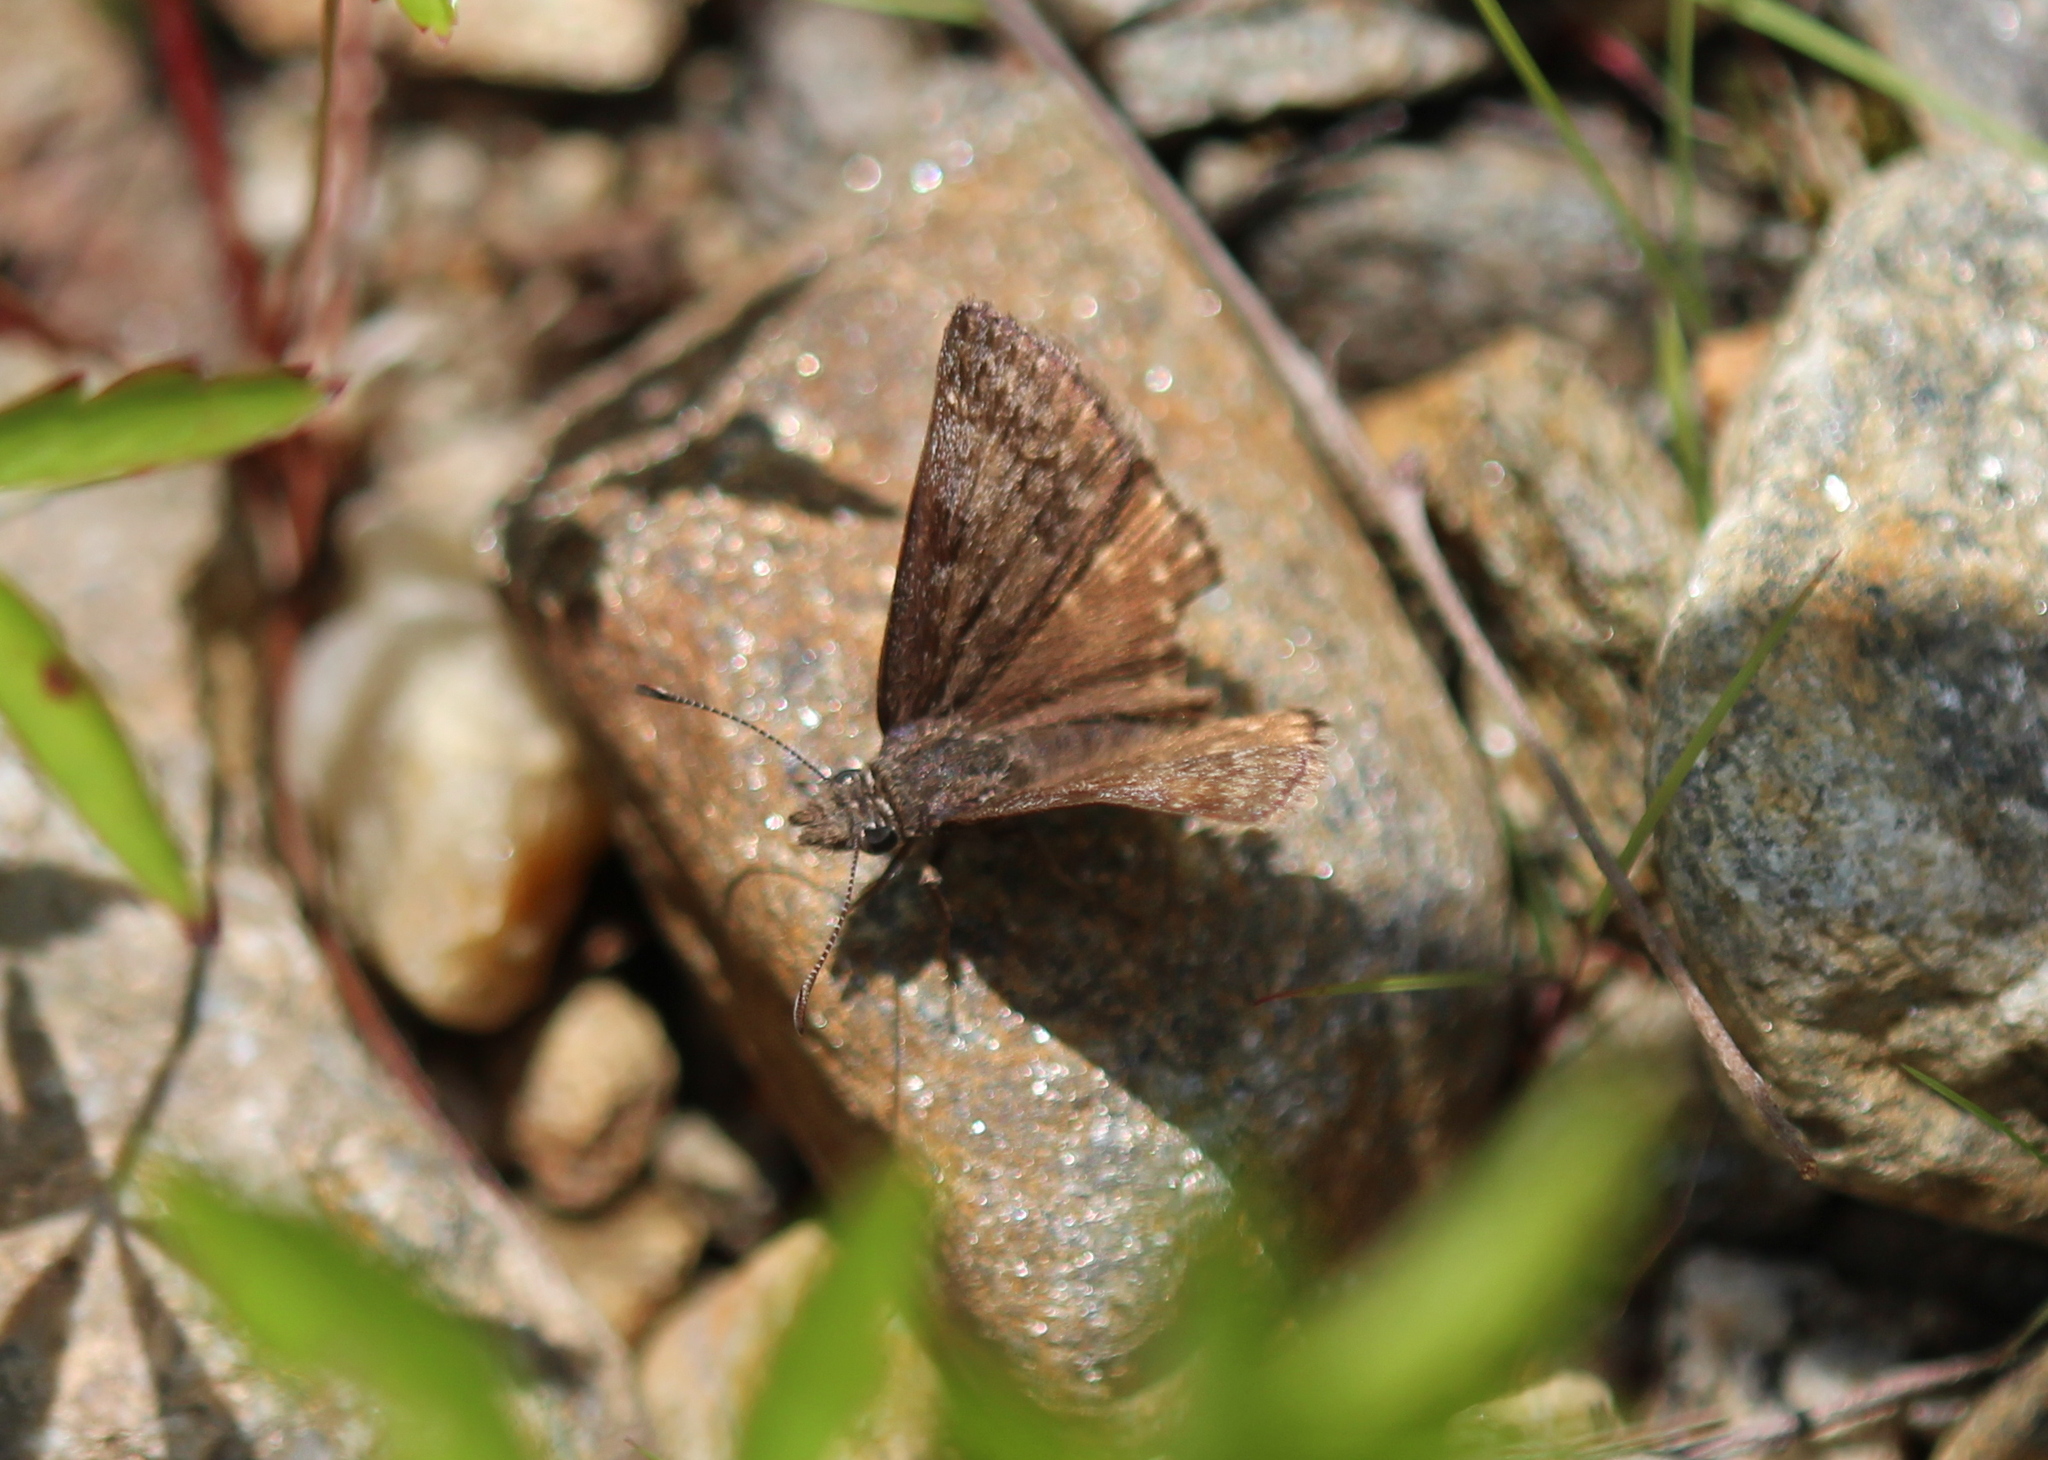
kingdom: Animalia
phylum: Arthropoda
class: Insecta
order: Lepidoptera
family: Hesperiidae
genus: Erynnis
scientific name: Erynnis icelus
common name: Dreamy duskywing
